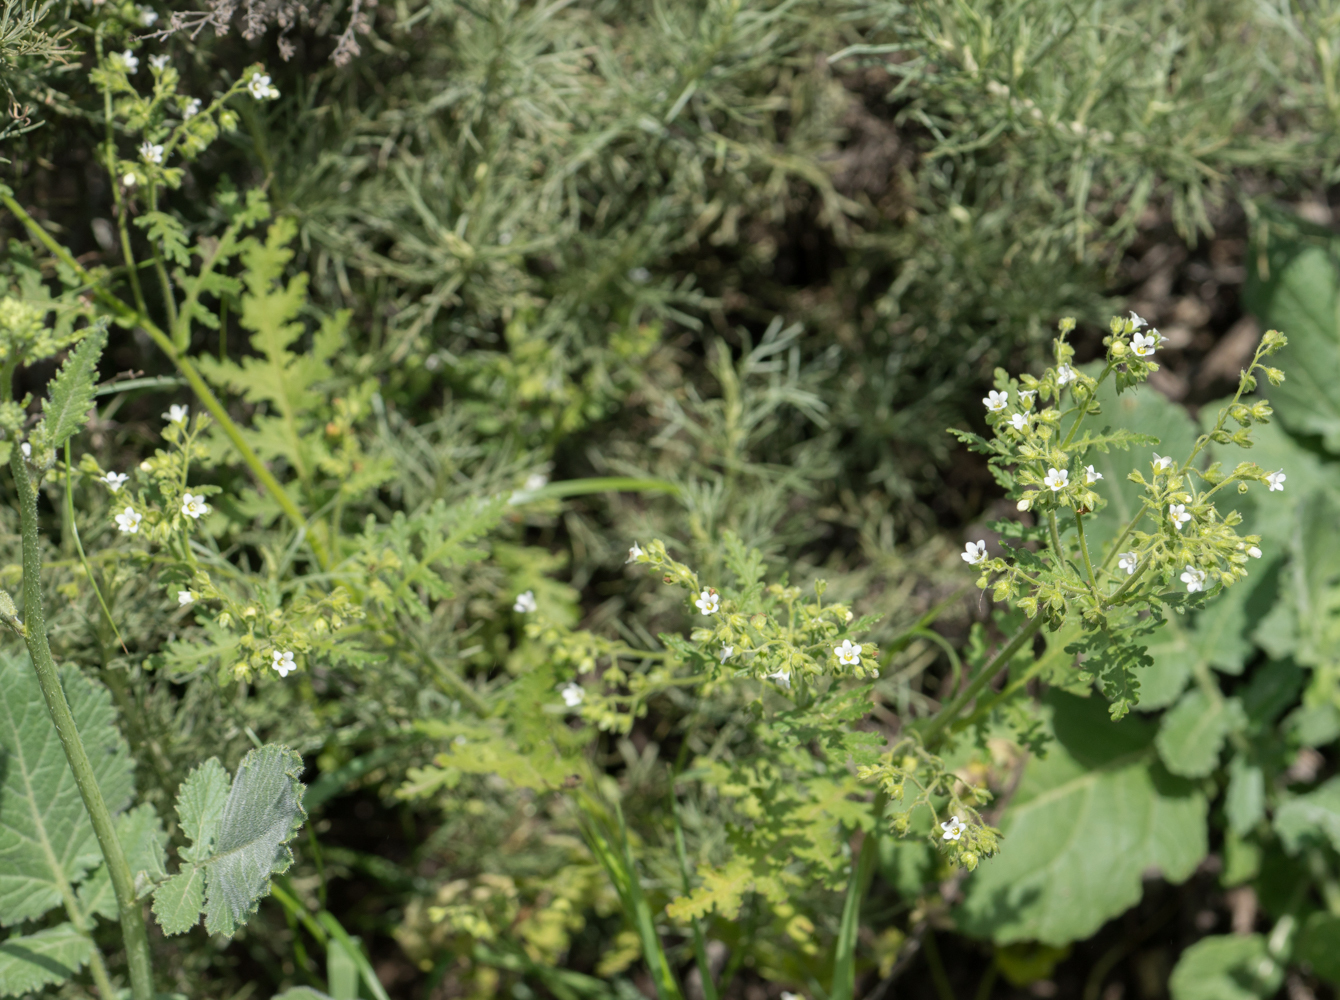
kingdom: Plantae
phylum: Tracheophyta
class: Magnoliopsida
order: Boraginales
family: Hydrophyllaceae
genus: Eucrypta
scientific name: Eucrypta chrysanthemifolia
